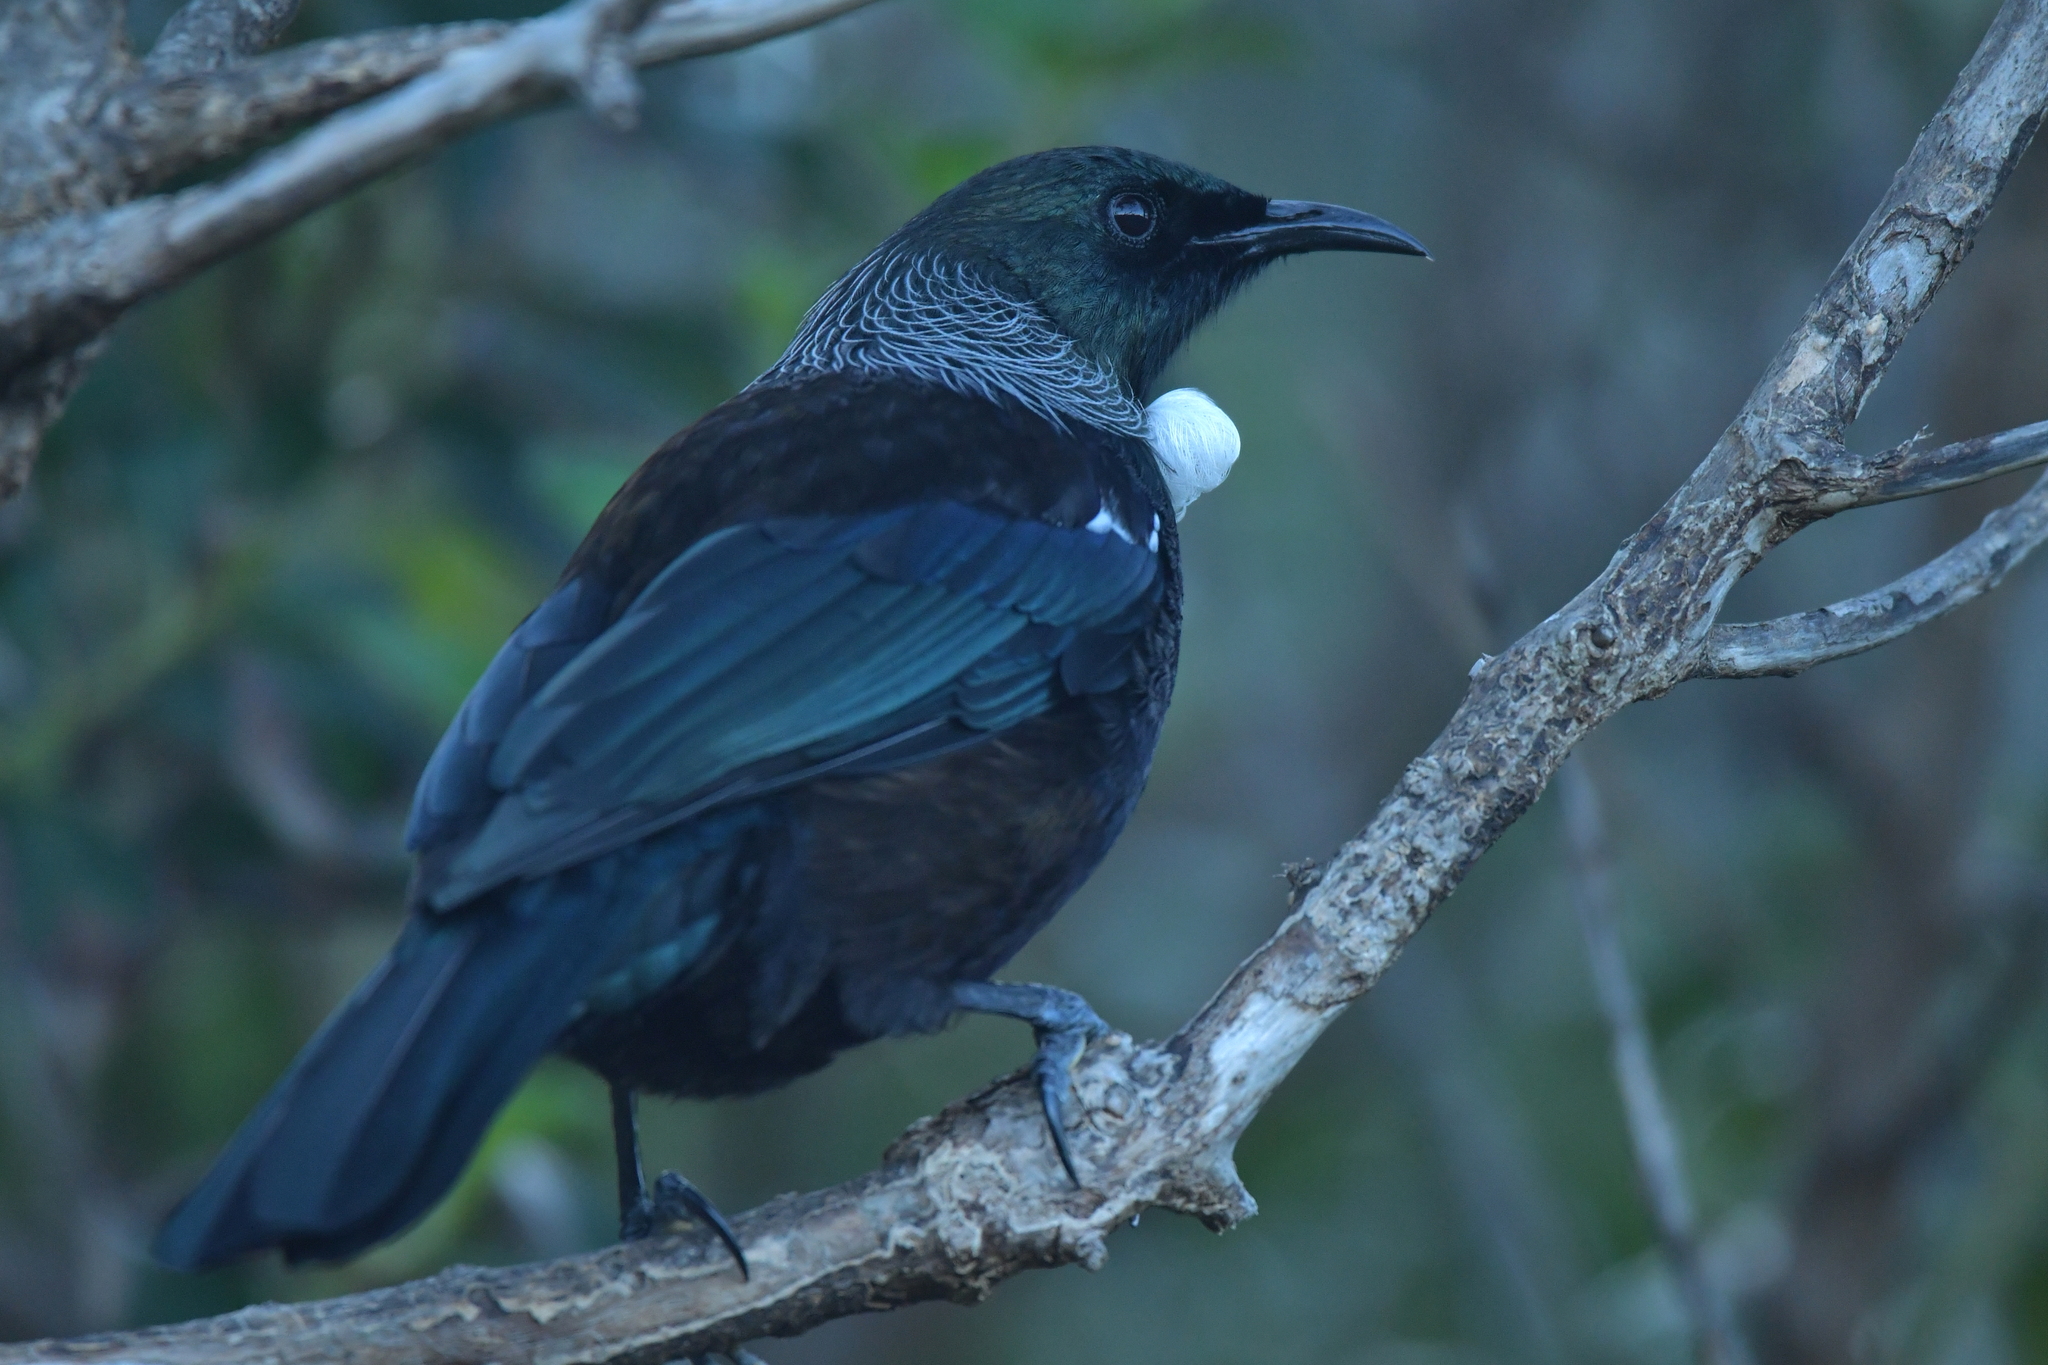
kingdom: Animalia
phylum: Chordata
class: Aves
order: Passeriformes
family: Meliphagidae
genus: Prosthemadera
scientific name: Prosthemadera novaeseelandiae
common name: Tui
